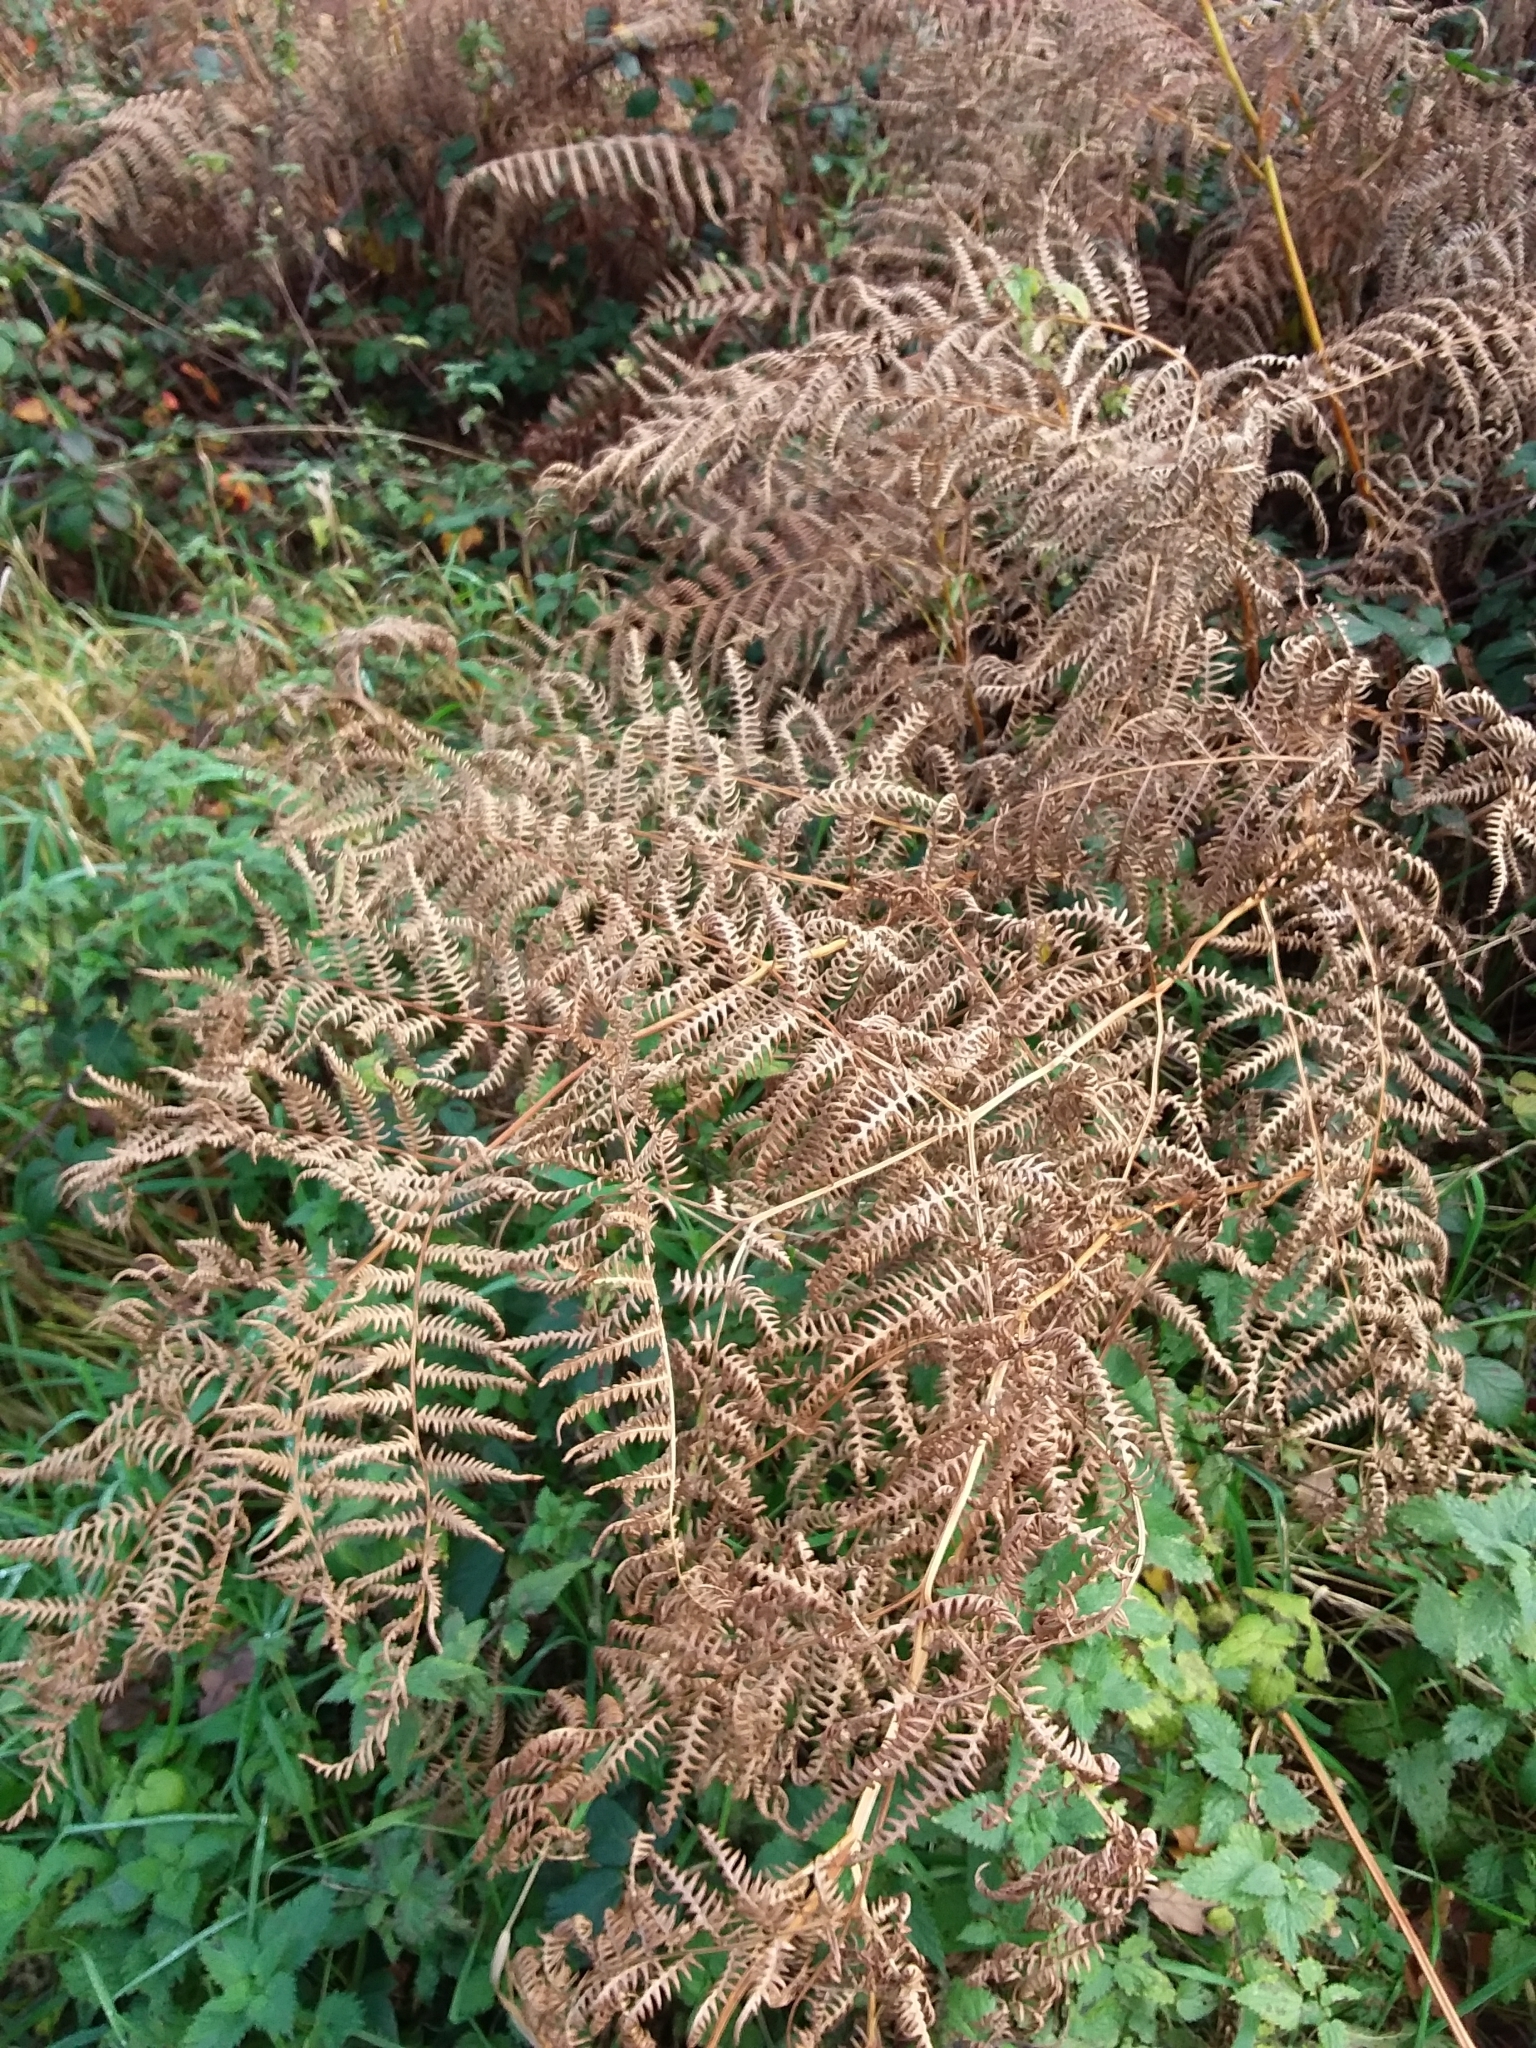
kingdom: Plantae
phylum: Tracheophyta
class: Polypodiopsida
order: Polypodiales
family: Dennstaedtiaceae
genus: Pteridium
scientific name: Pteridium aquilinum
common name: Bracken
